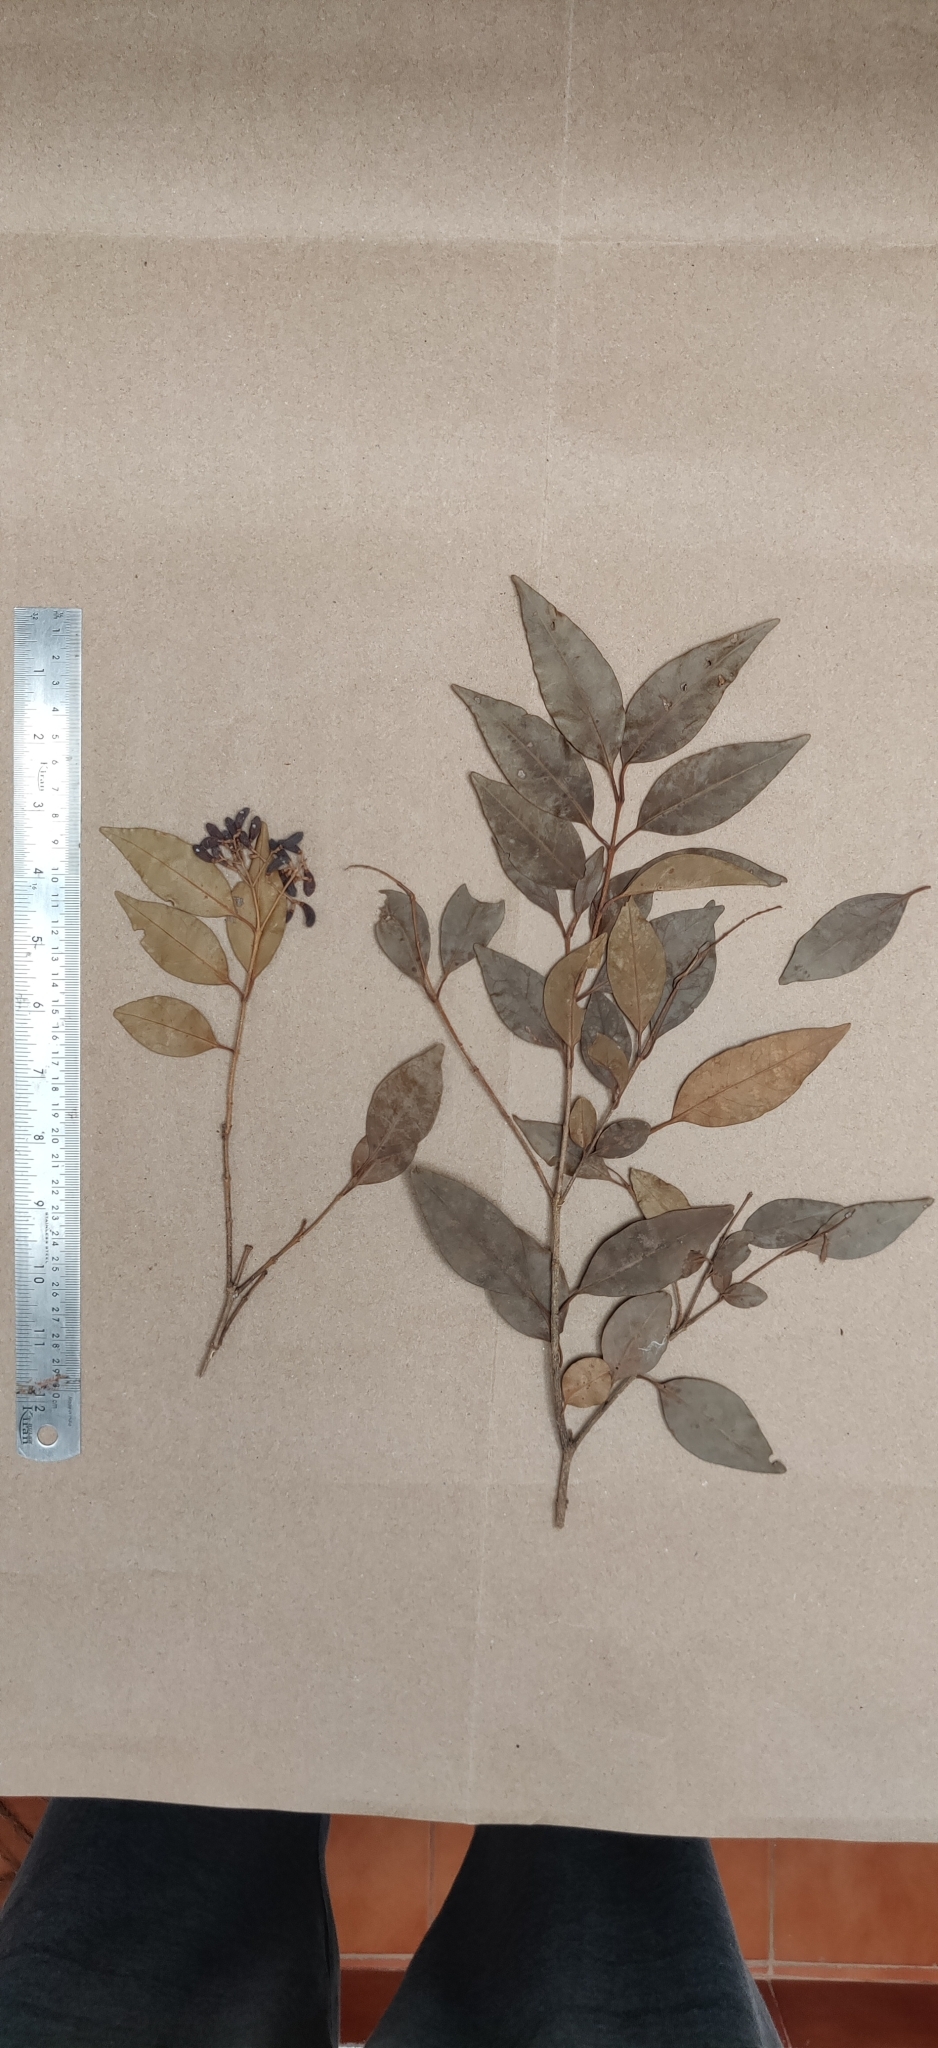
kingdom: Plantae
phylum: Tracheophyta
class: Magnoliopsida
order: Lamiales
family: Oleaceae
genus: Ligustrum
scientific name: Ligustrum robustum
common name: Tree privet
